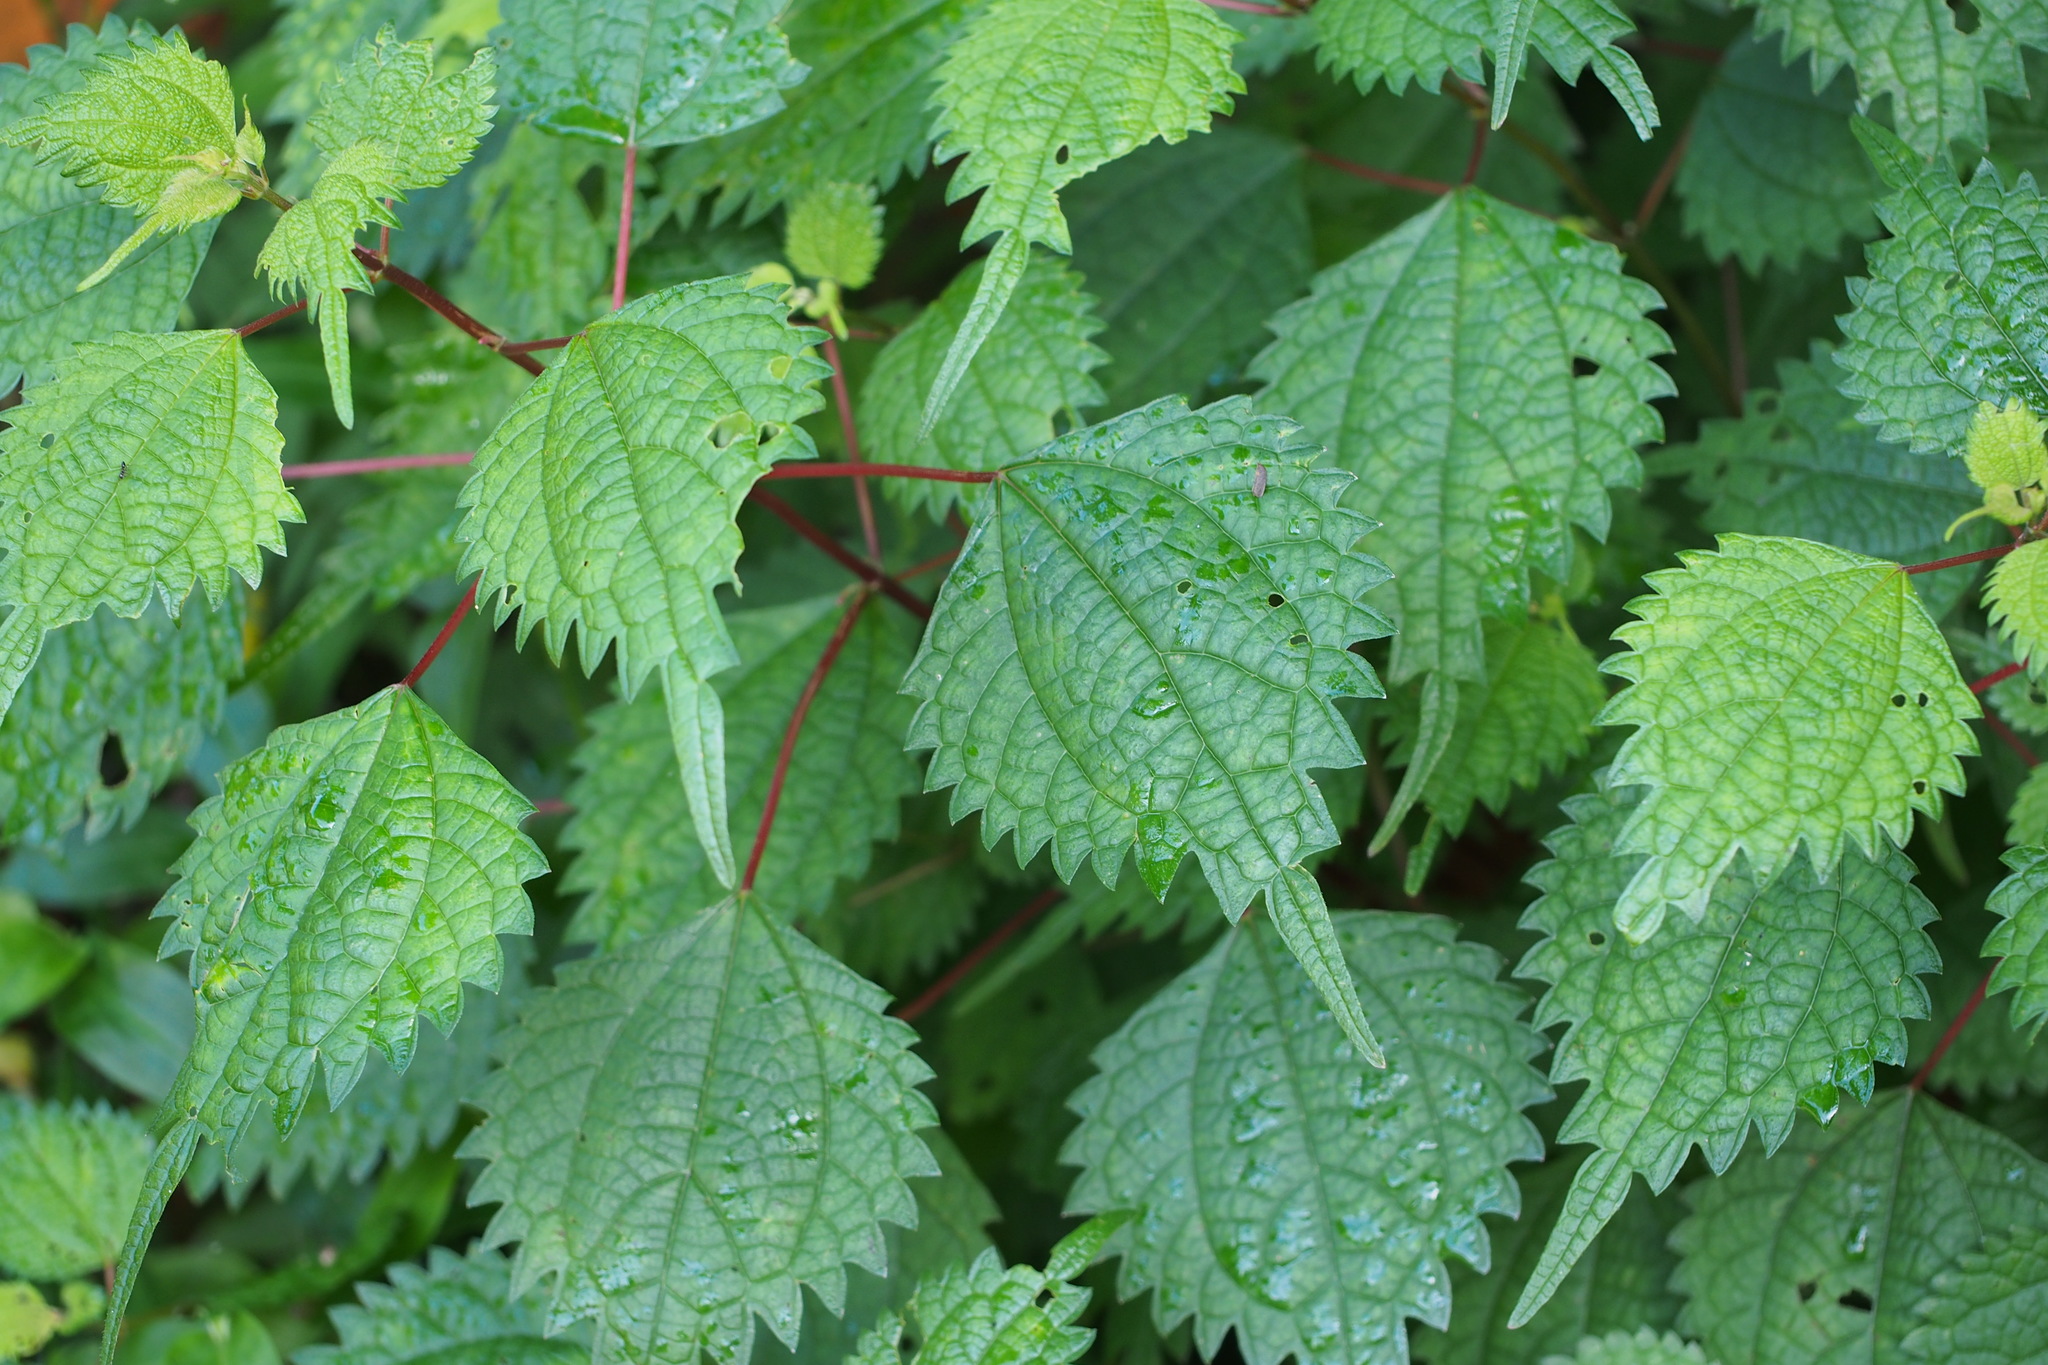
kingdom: Plantae
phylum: Tracheophyta
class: Magnoliopsida
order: Rosales
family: Urticaceae
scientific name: Urticaceae
